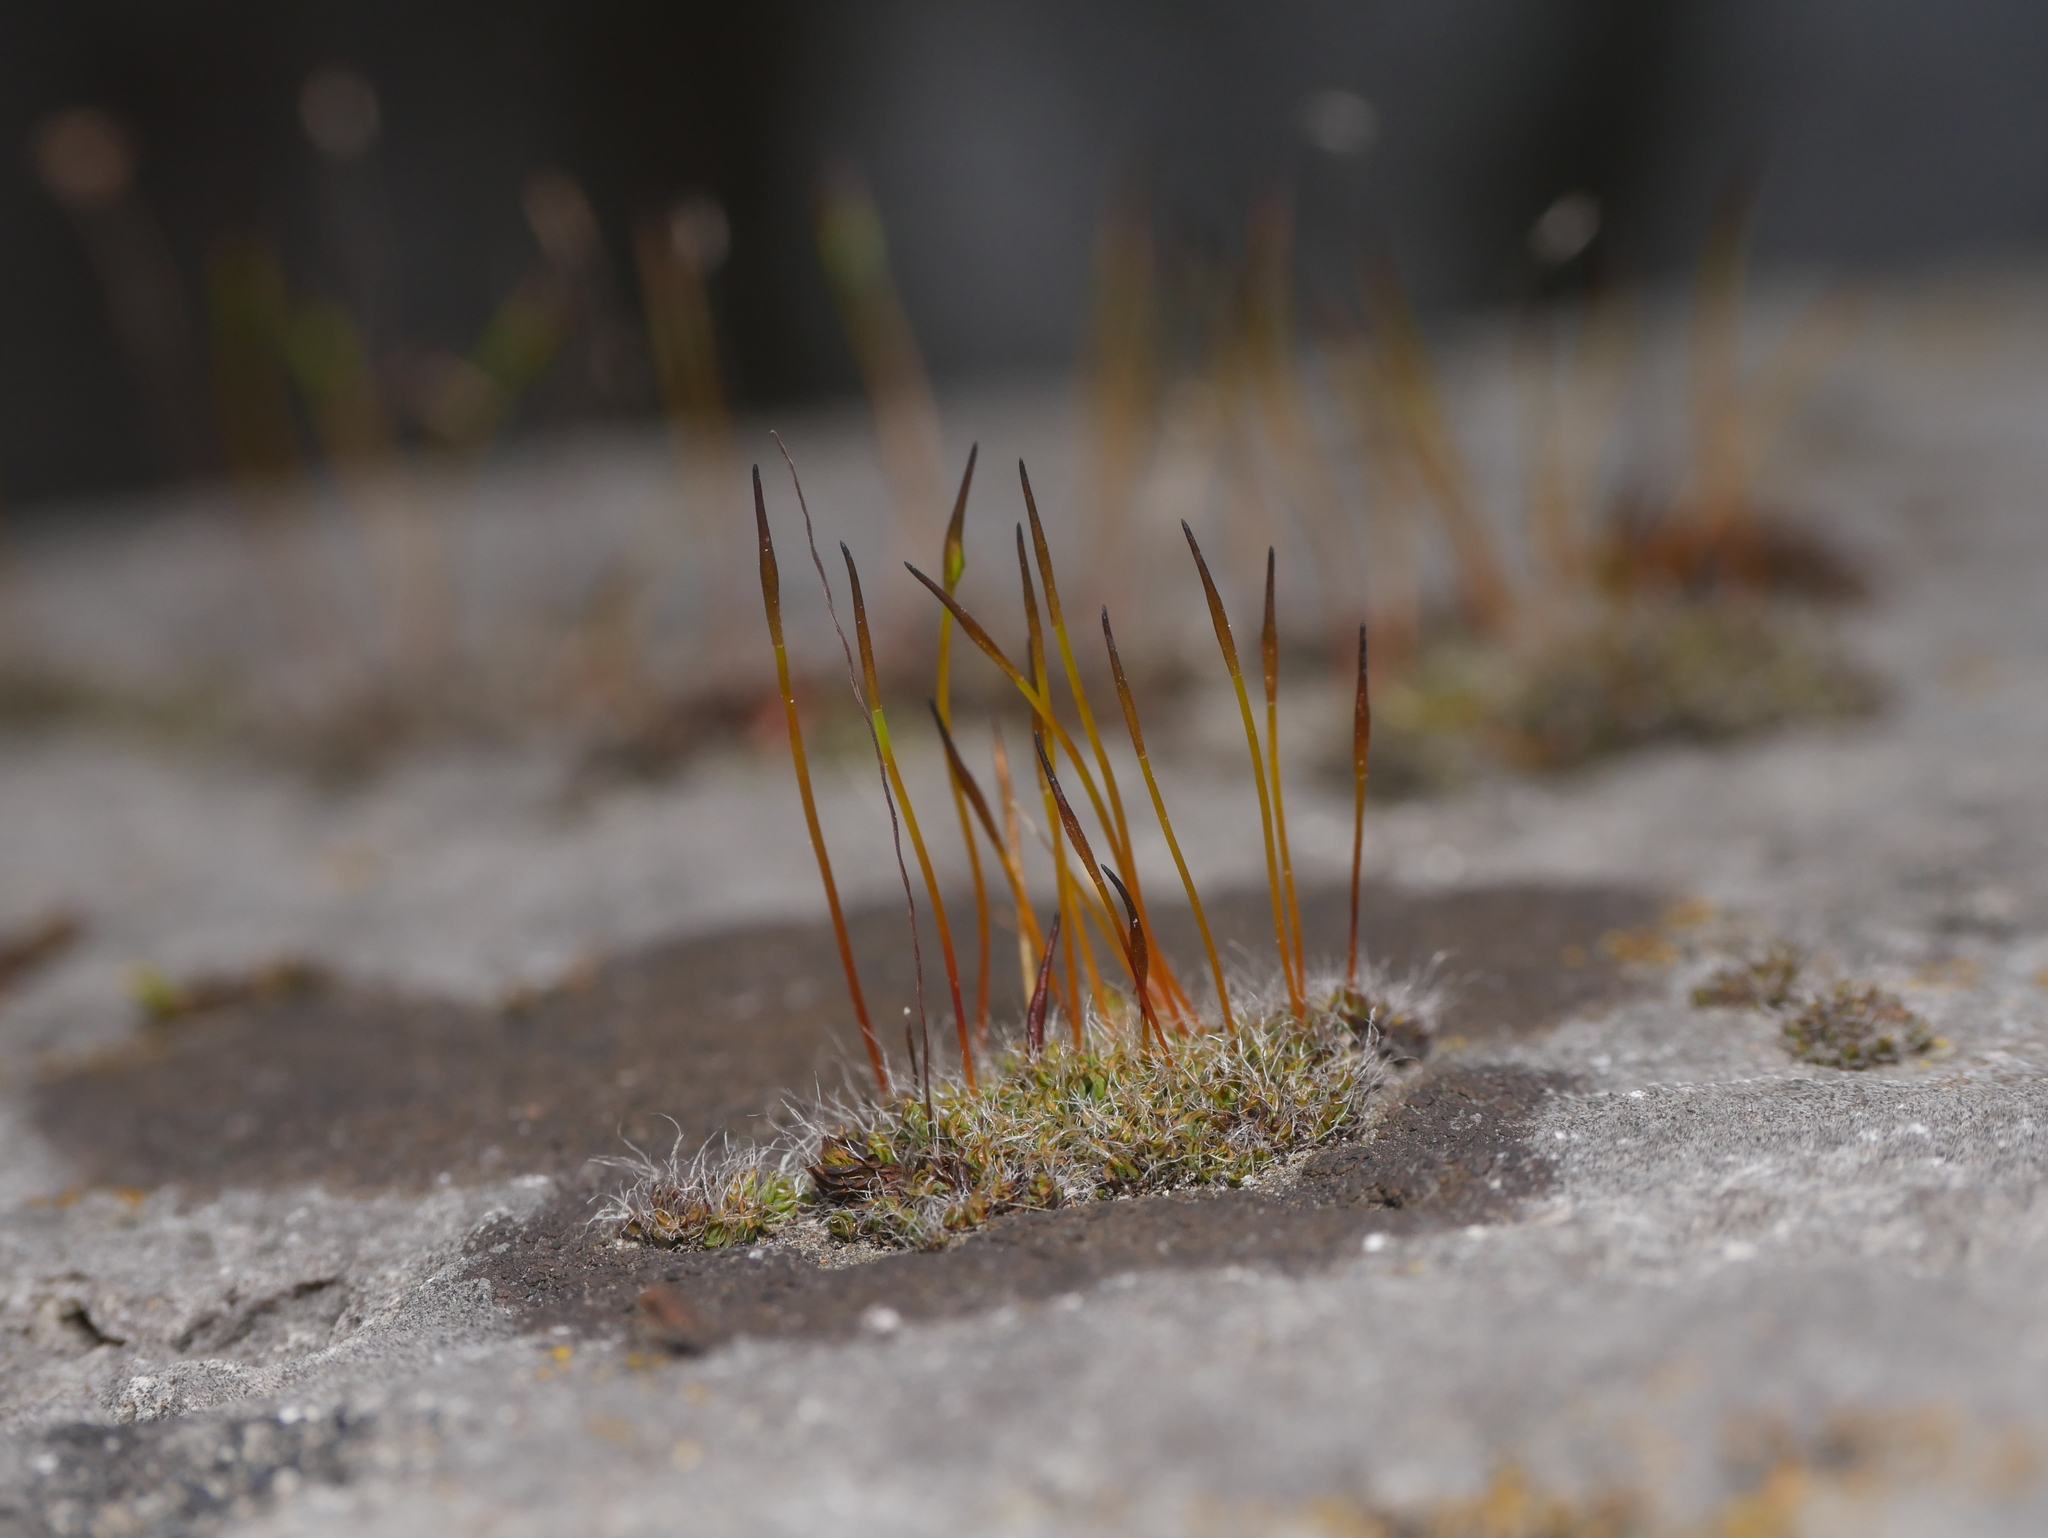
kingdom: Plantae
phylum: Bryophyta
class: Bryopsida
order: Pottiales
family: Pottiaceae
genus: Tortula
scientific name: Tortula muralis
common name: Wall screw-moss
